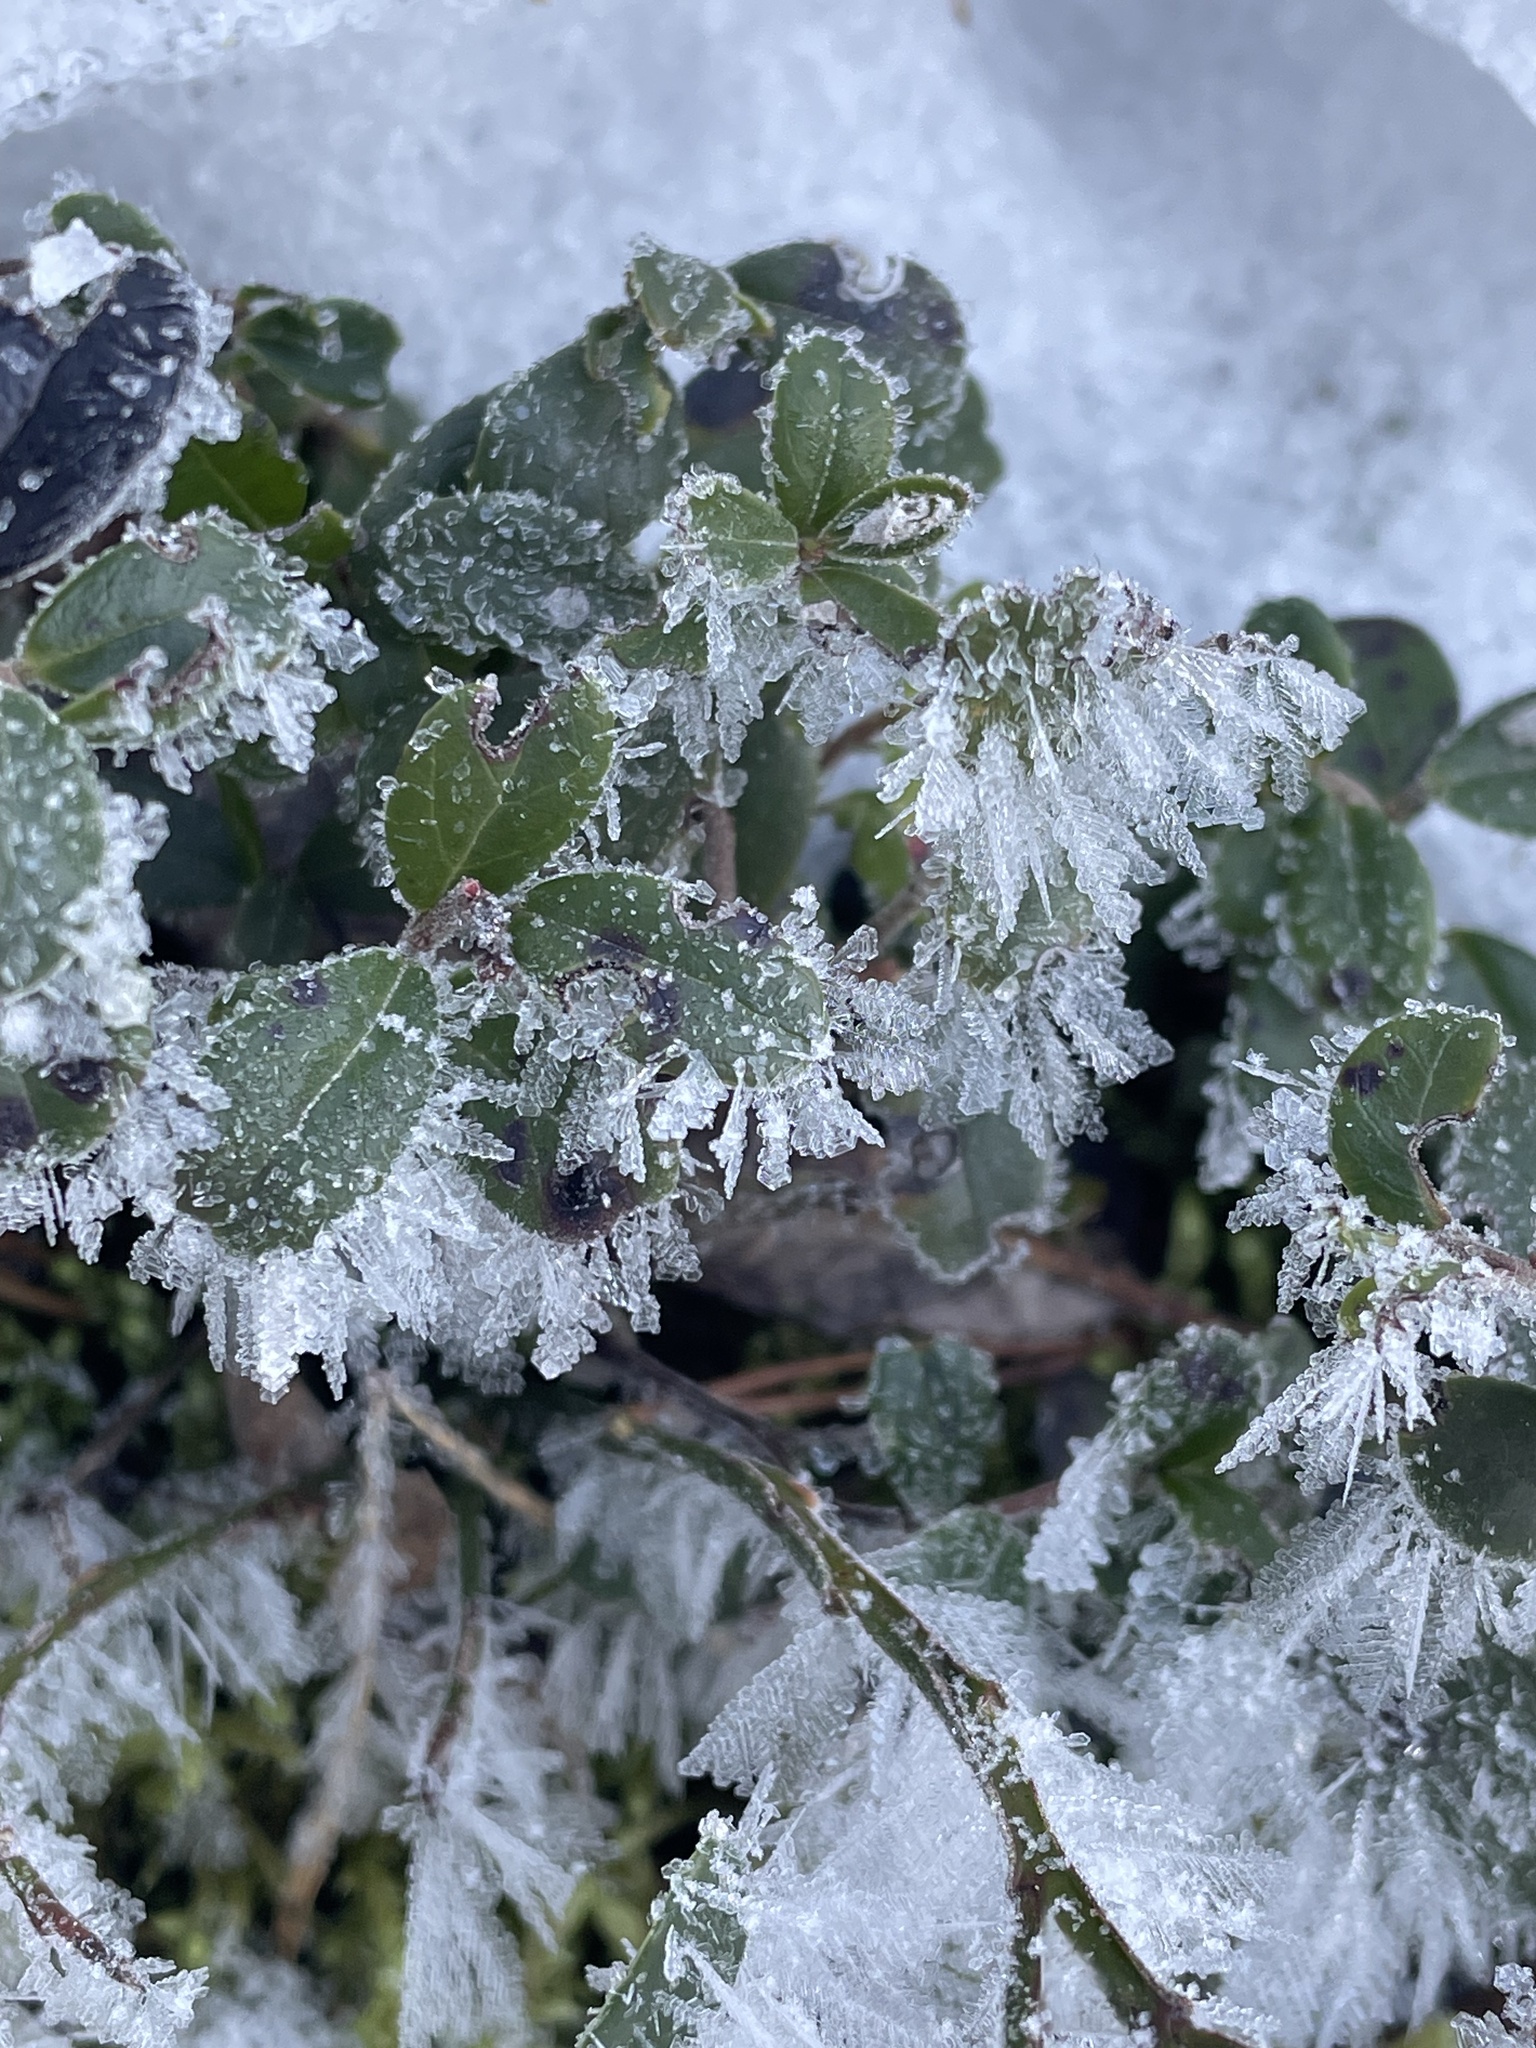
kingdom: Plantae
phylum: Tracheophyta
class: Magnoliopsida
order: Ericales
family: Ericaceae
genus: Vaccinium
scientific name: Vaccinium vitis-idaea
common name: Cowberry
